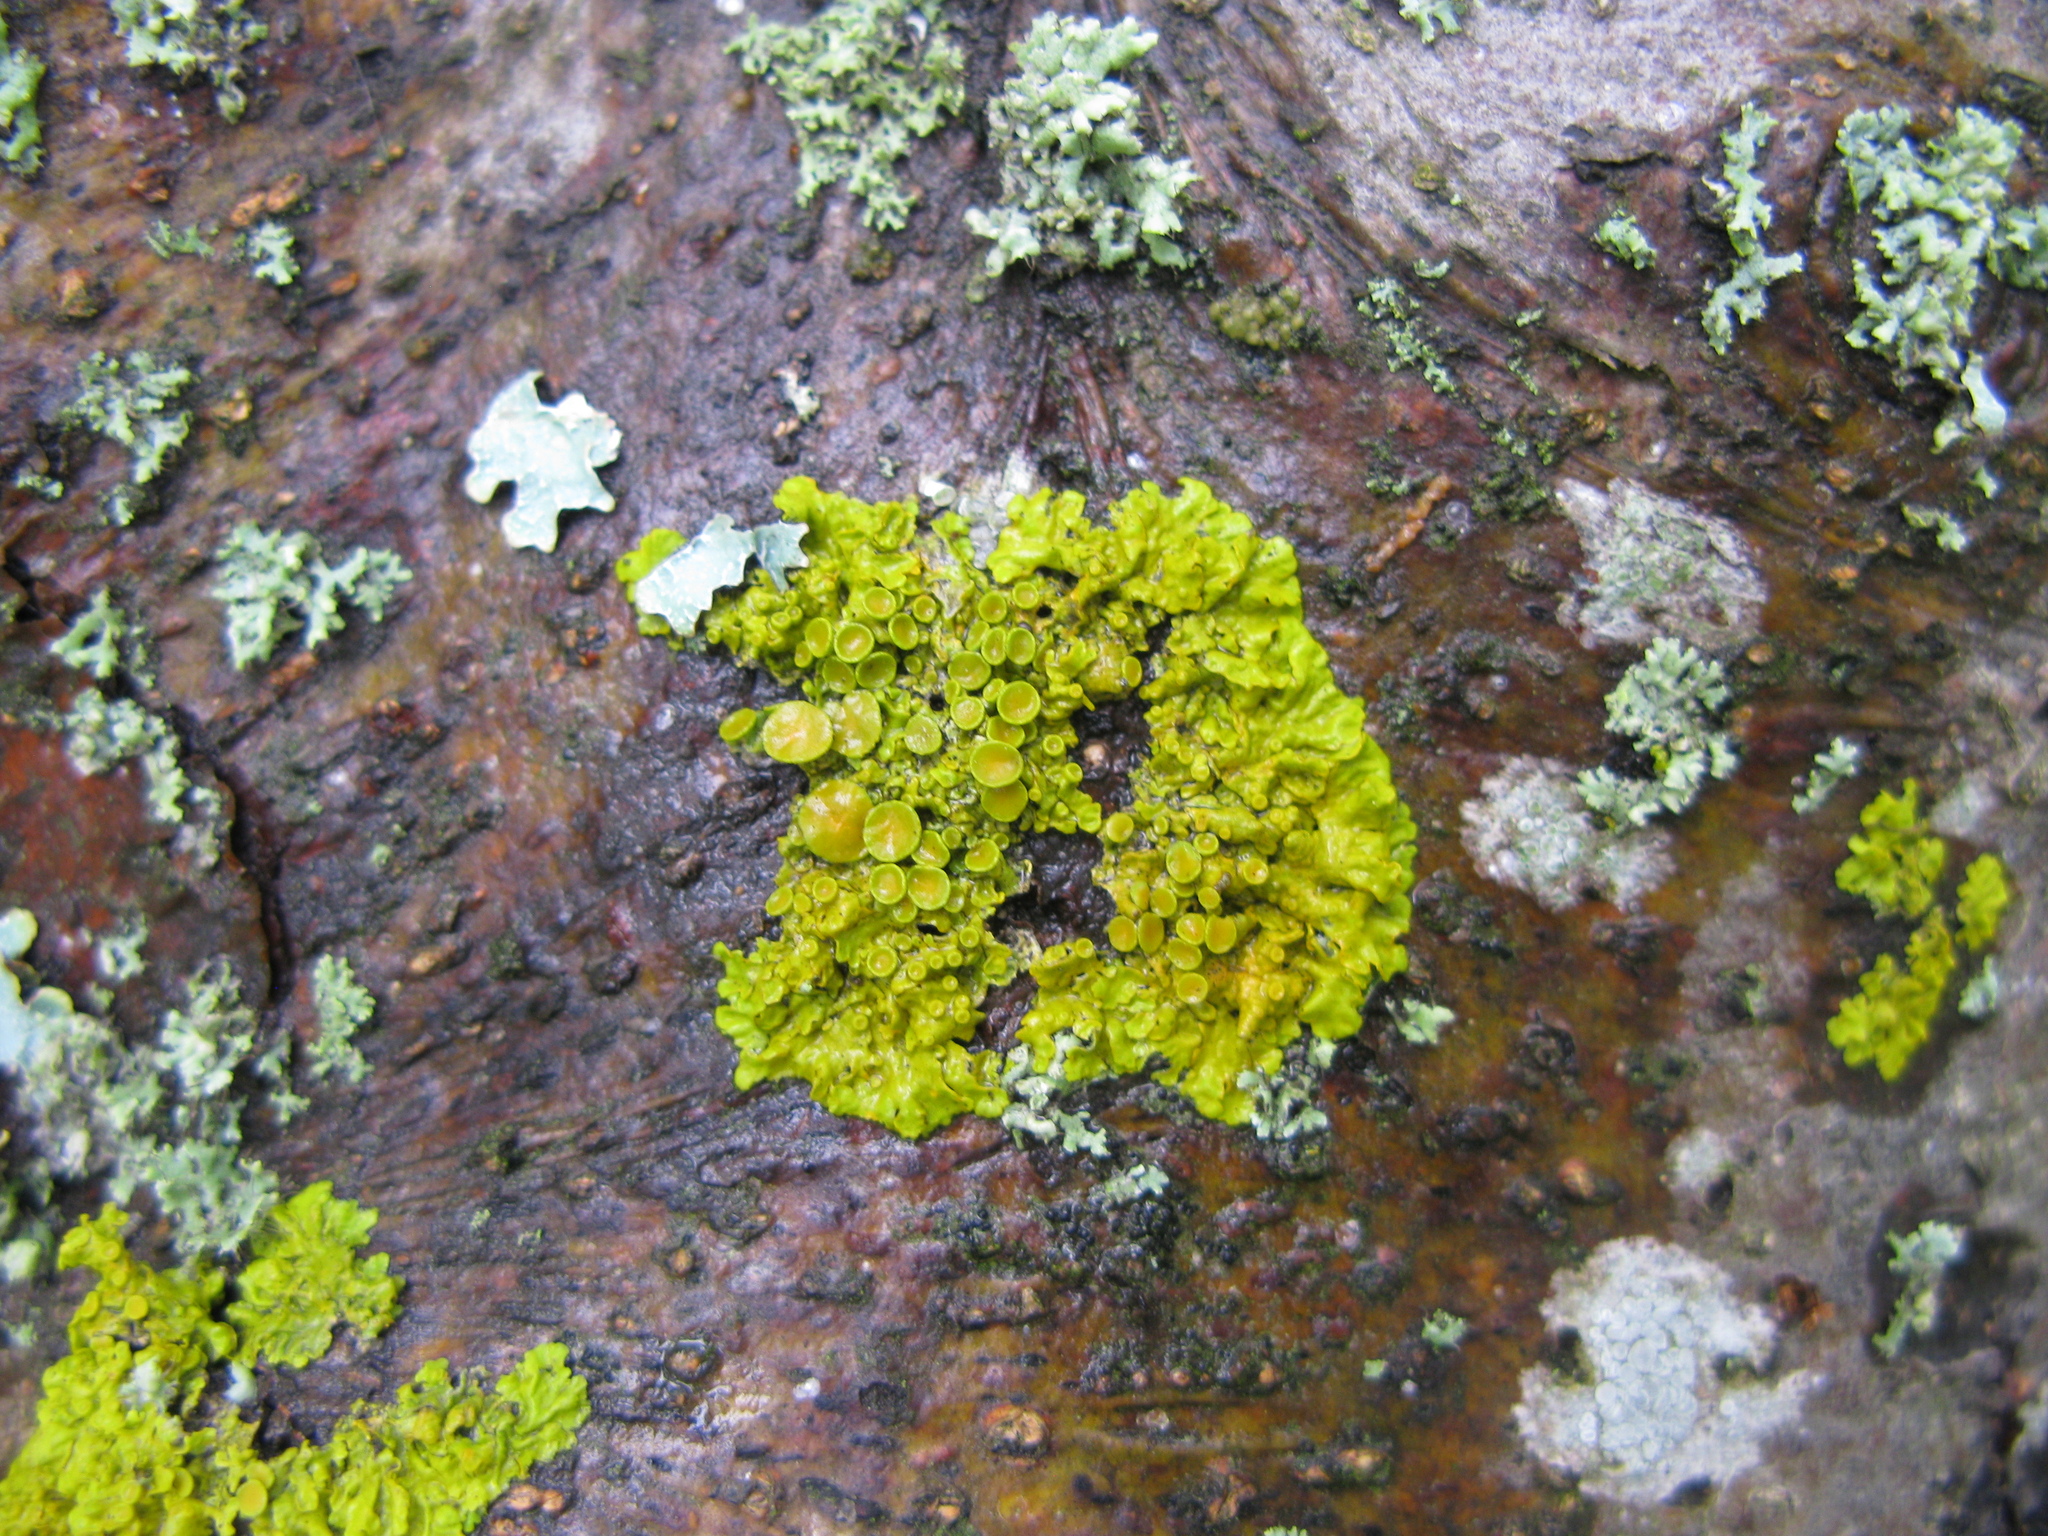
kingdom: Fungi
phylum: Ascomycota
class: Lecanoromycetes
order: Teloschistales
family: Teloschistaceae
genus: Xanthoria
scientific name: Xanthoria parietina
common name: Common orange lichen
